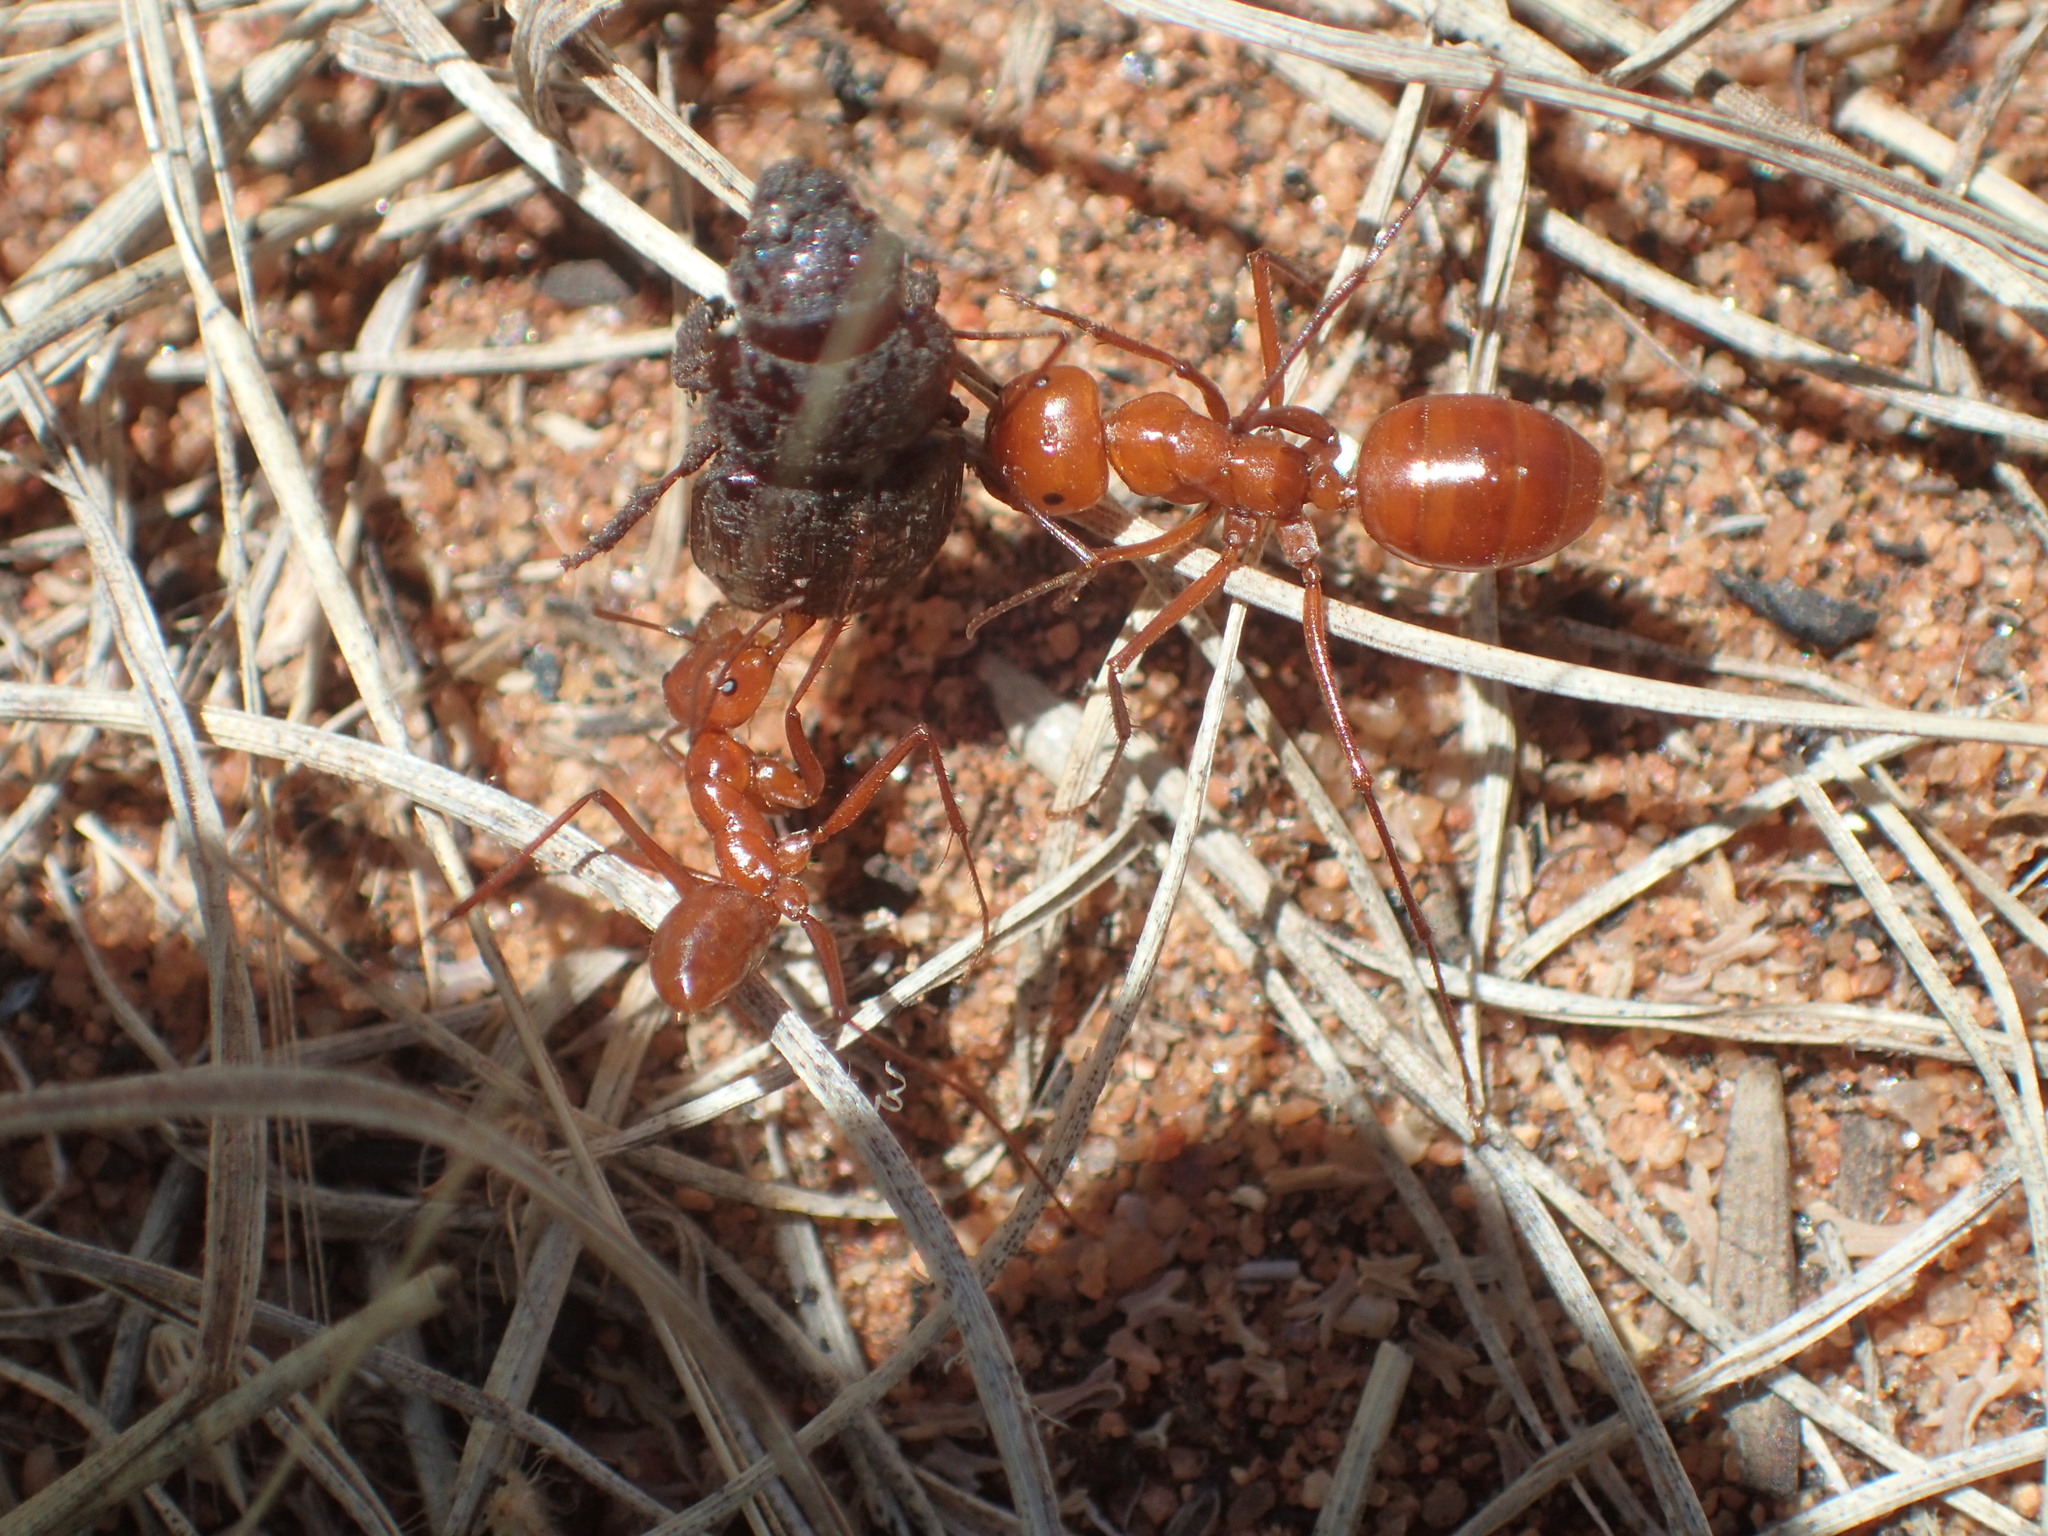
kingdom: Animalia
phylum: Arthropoda
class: Insecta
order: Hymenoptera
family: Formicidae
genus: Melophorus
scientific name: Melophorus bagoti
